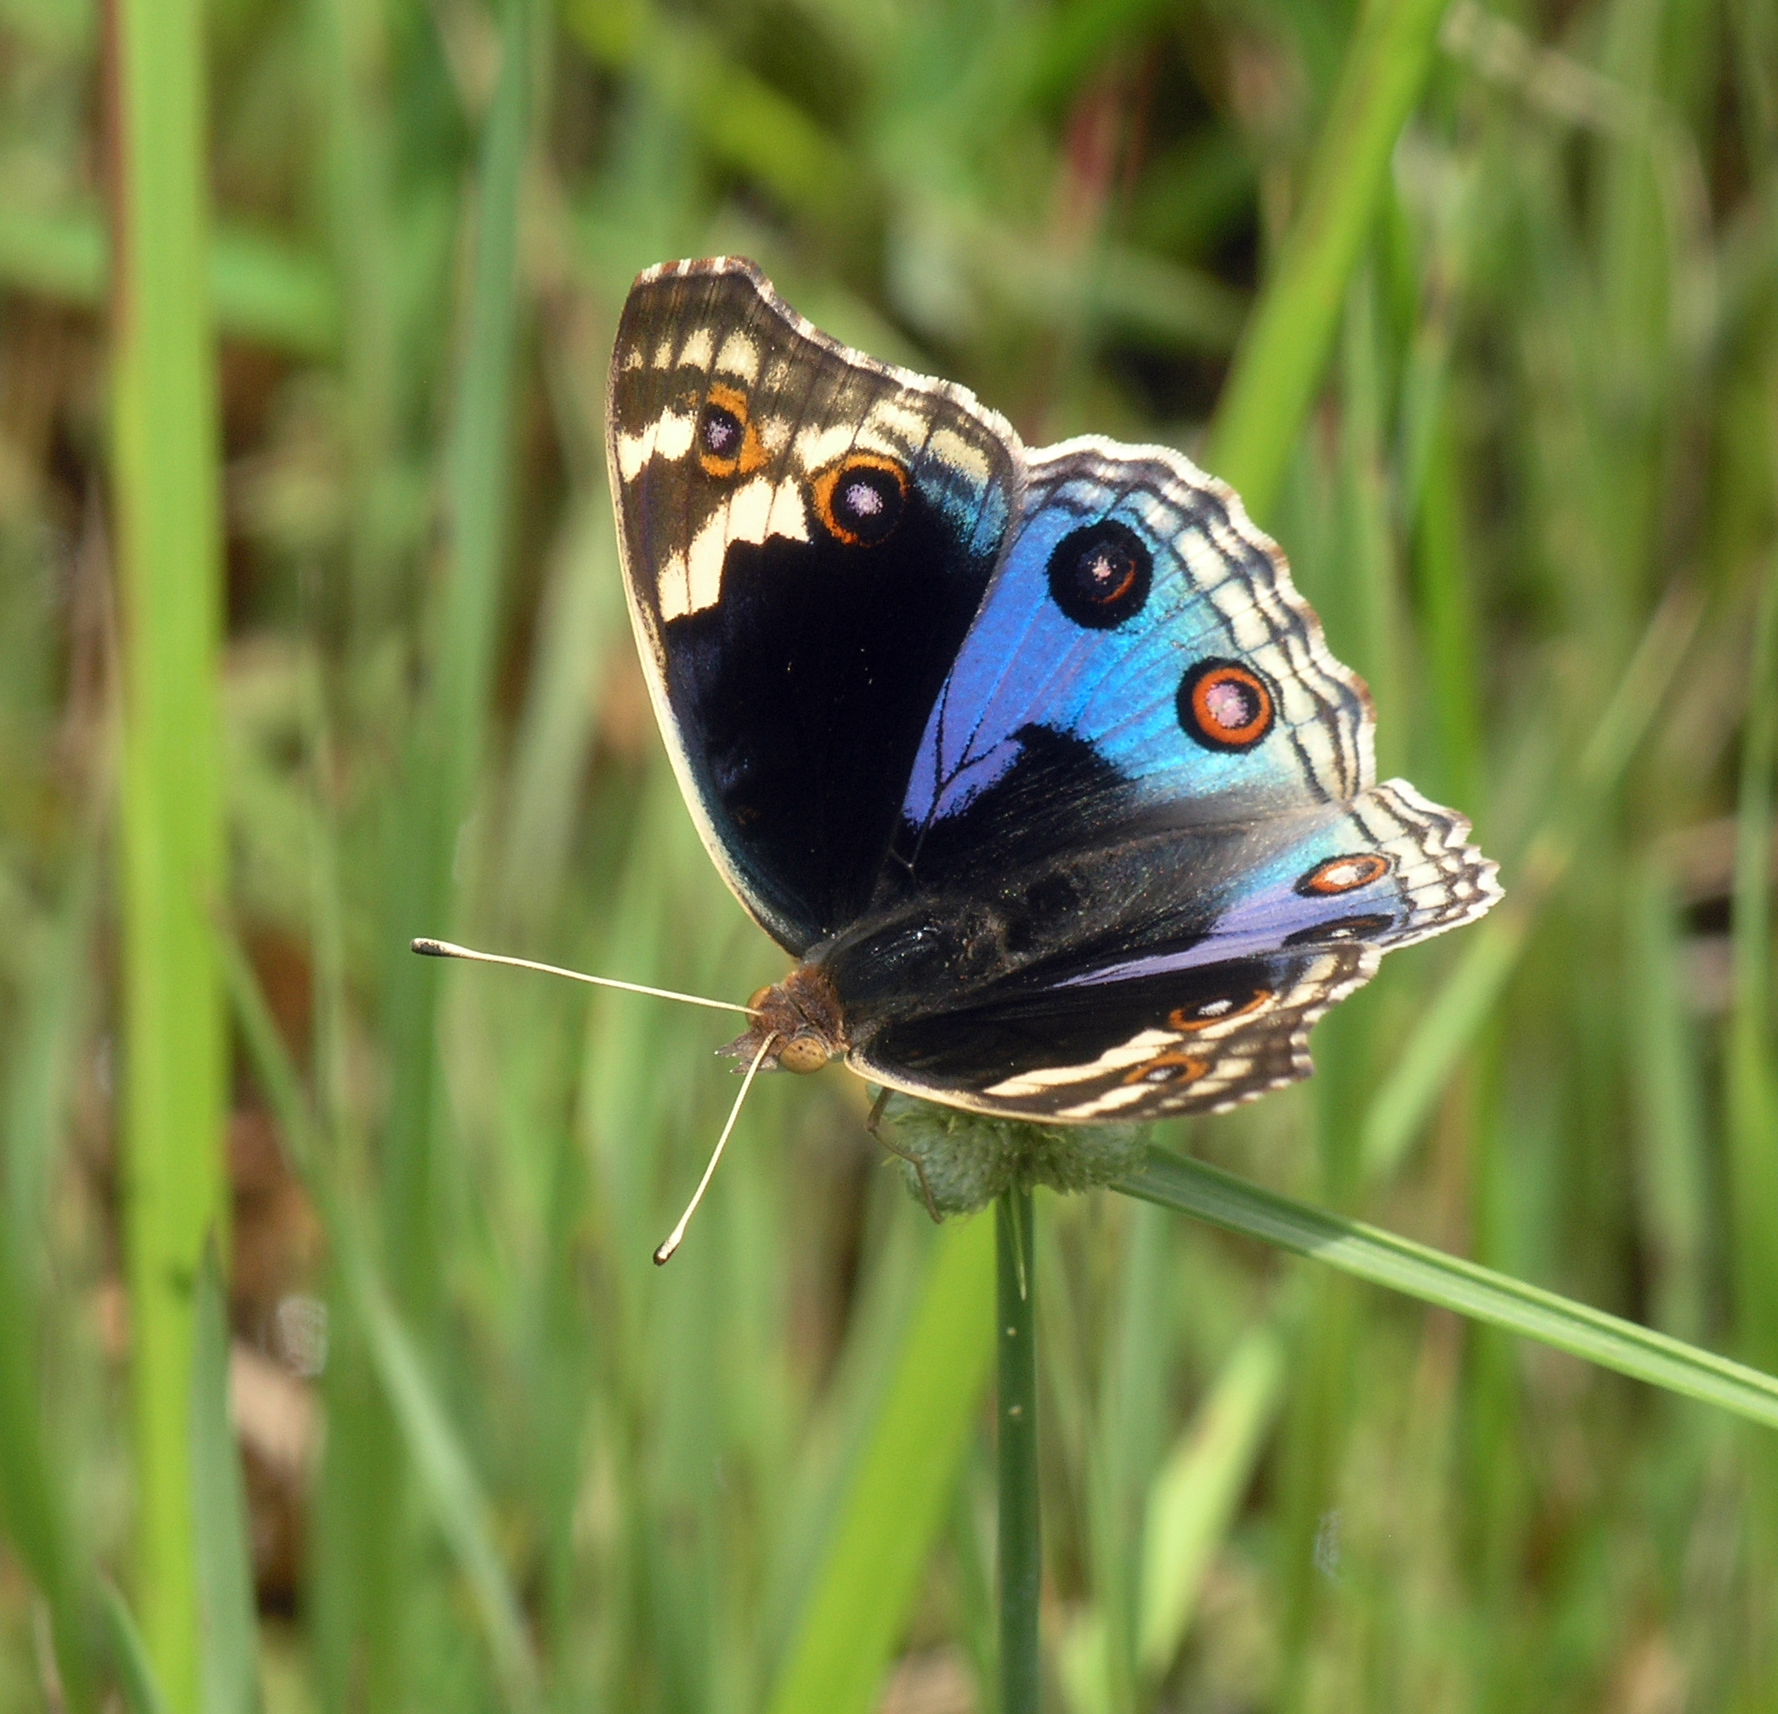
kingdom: Animalia
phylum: Arthropoda
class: Insecta
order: Lepidoptera
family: Nymphalidae
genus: Junonia
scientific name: Junonia orithya
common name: Blue pansy
